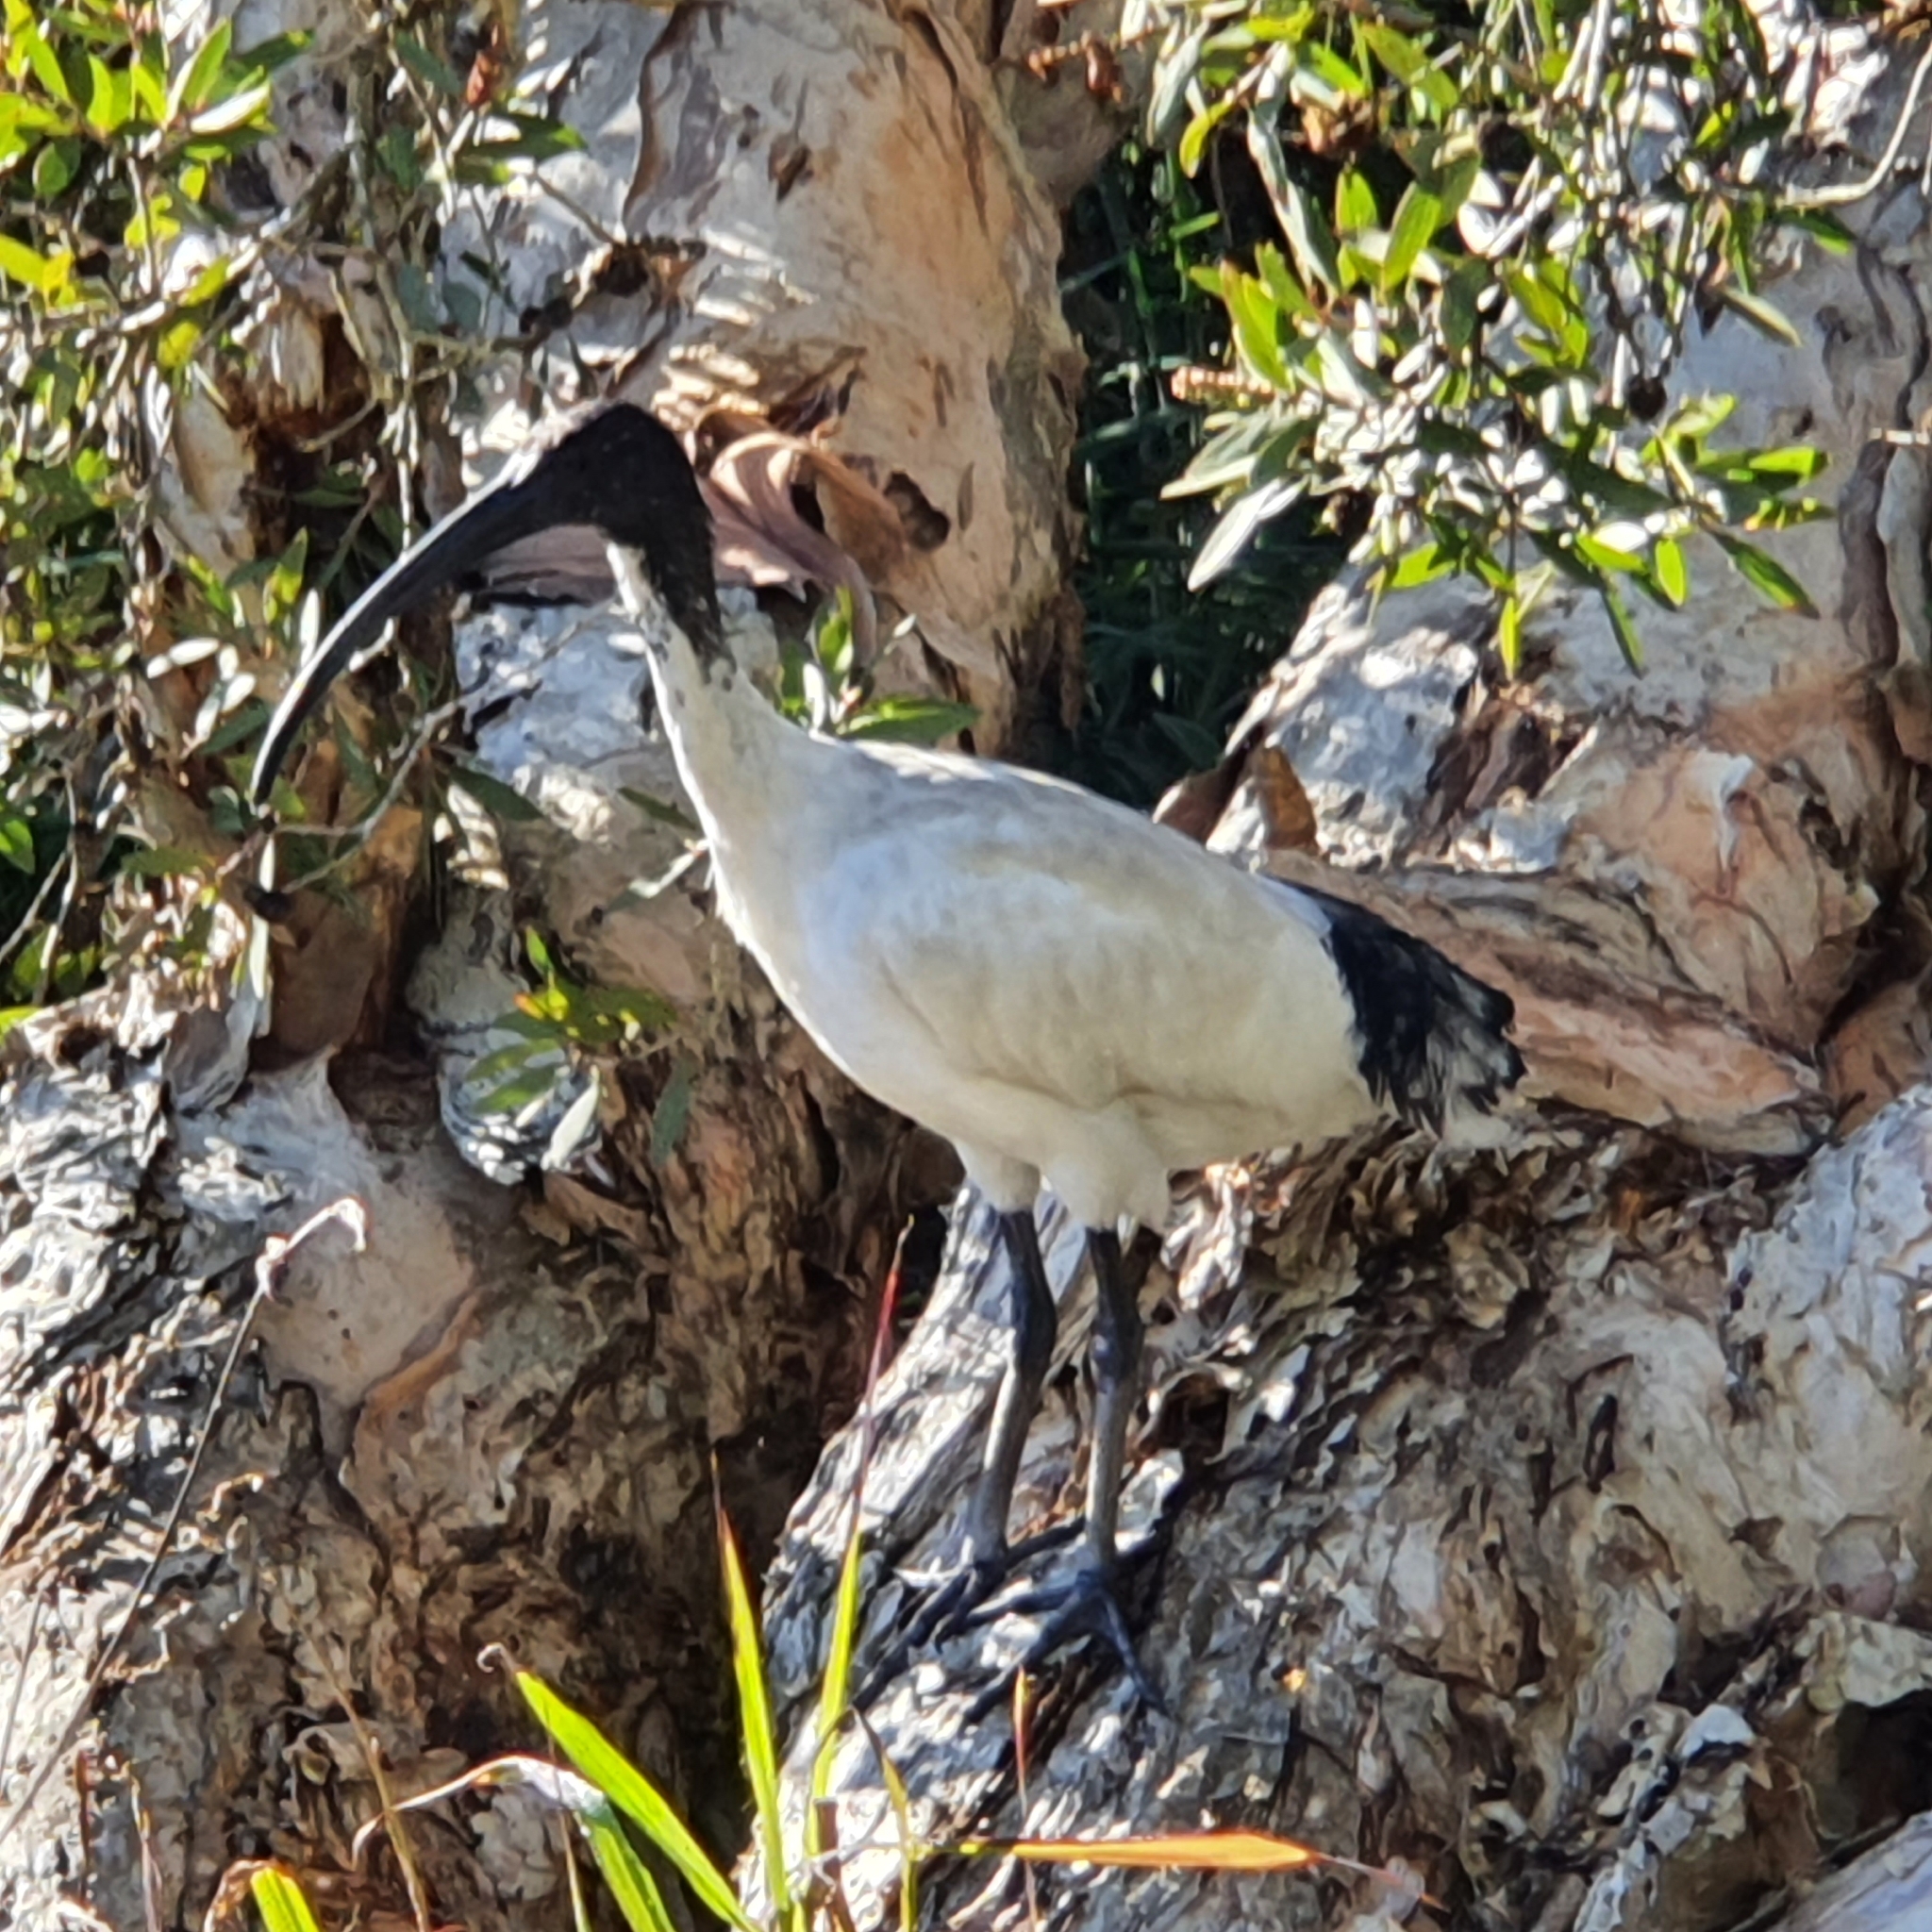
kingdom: Animalia
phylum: Chordata
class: Aves
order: Pelecaniformes
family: Threskiornithidae
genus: Threskiornis
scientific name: Threskiornis molucca
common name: Australian white ibis
